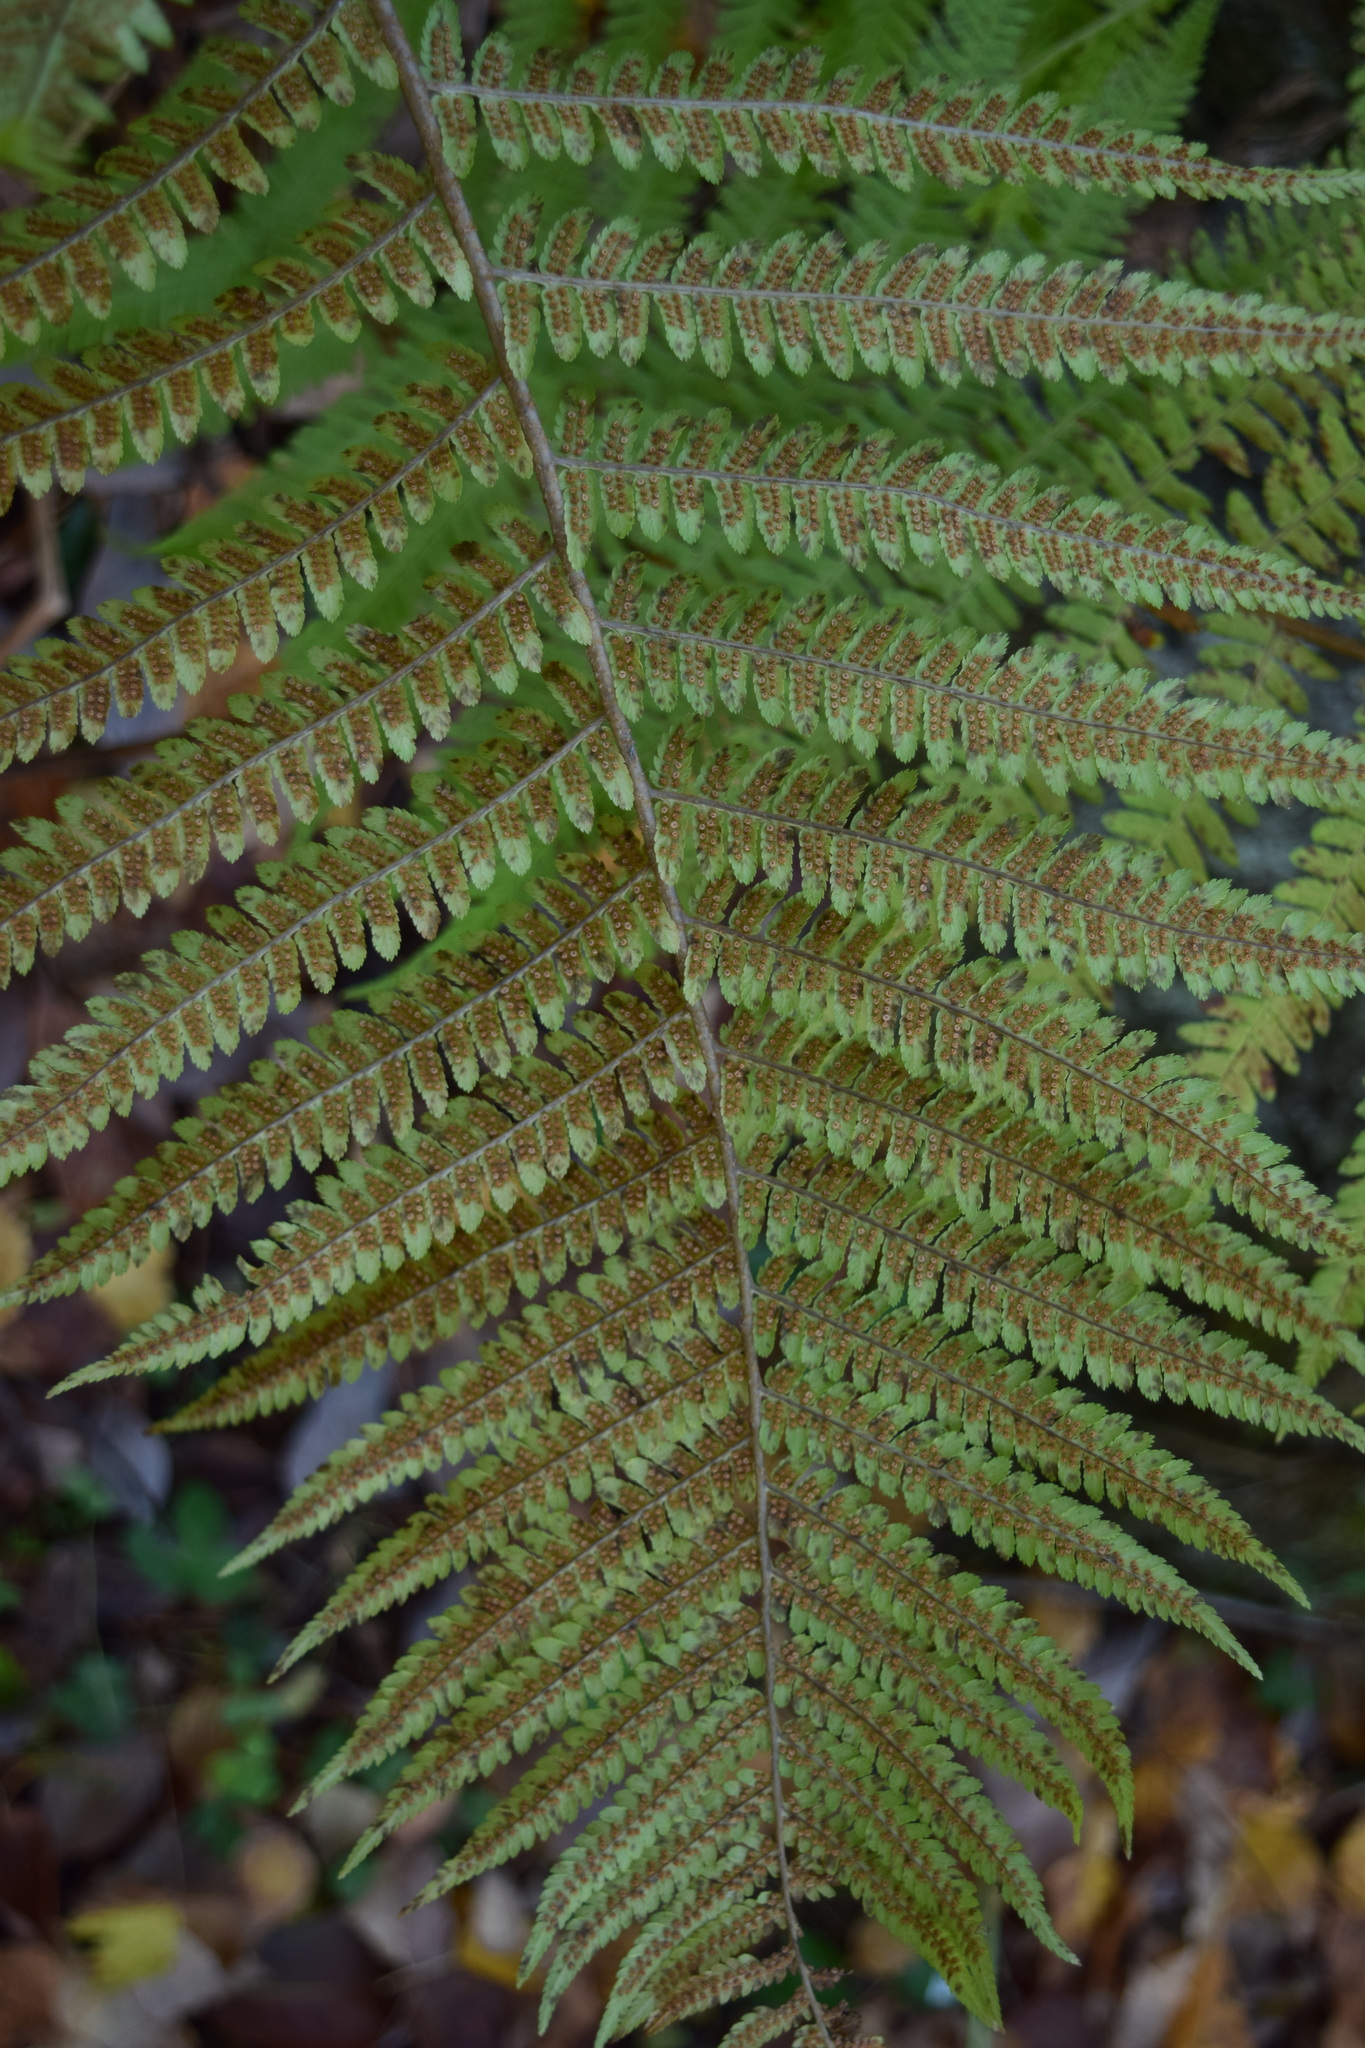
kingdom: Plantae
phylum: Tracheophyta
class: Polypodiopsida
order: Polypodiales
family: Dryopteridaceae
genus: Dryopteris
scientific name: Dryopteris filix-mas
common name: Male fern
